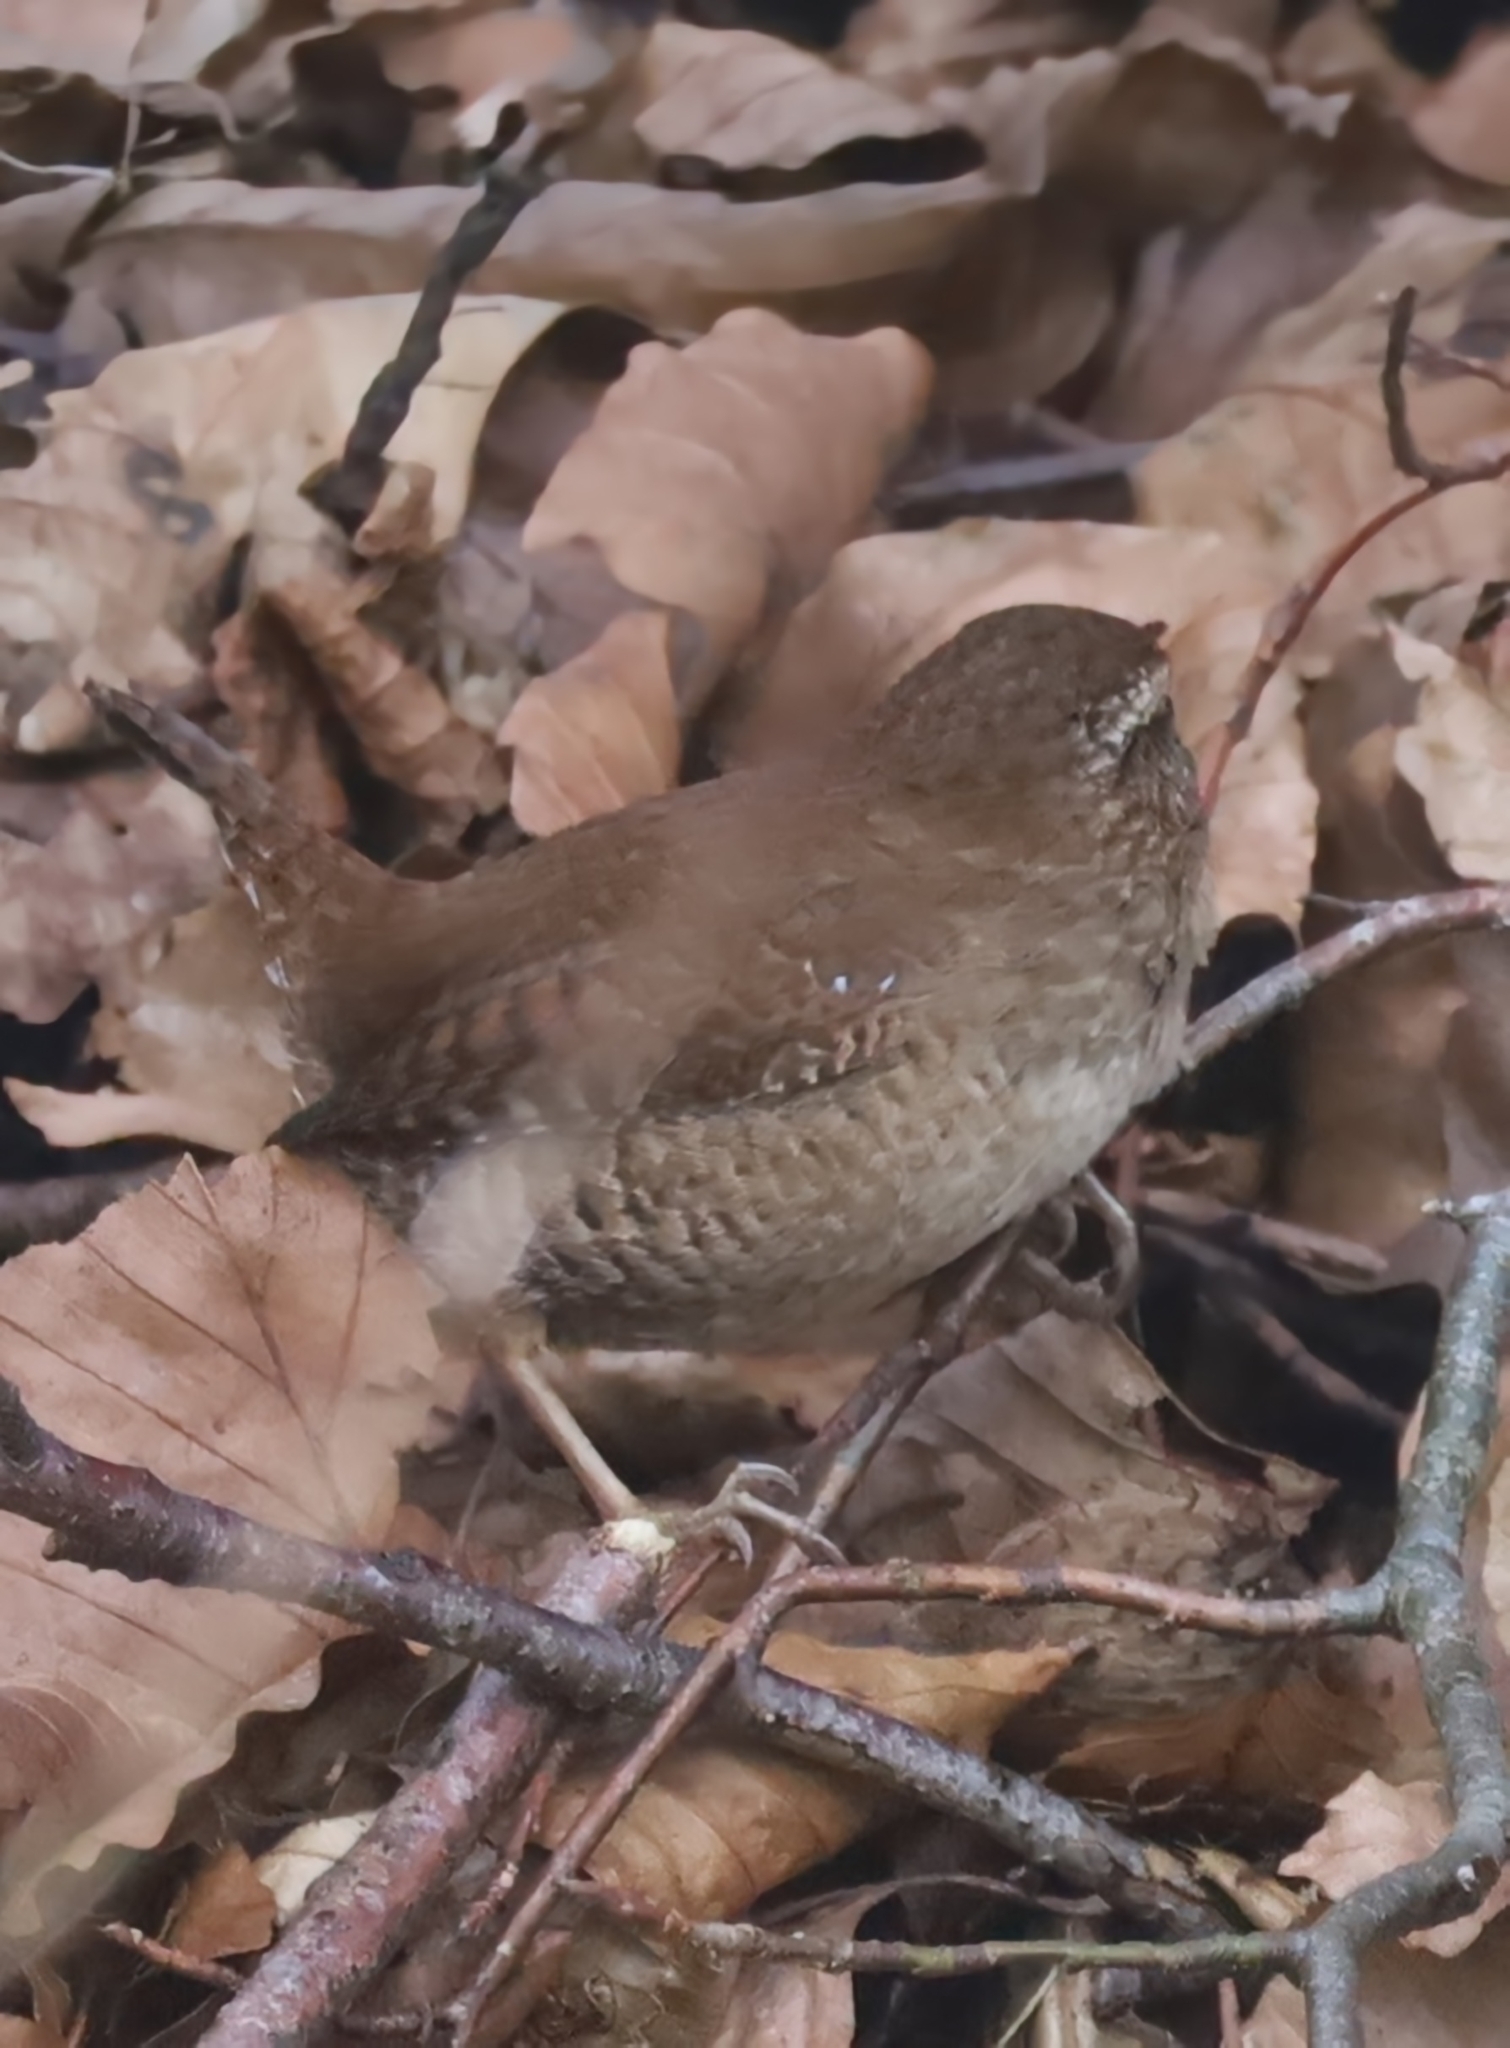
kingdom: Animalia
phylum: Chordata
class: Aves
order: Passeriformes
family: Troglodytidae
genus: Troglodytes
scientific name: Troglodytes troglodytes
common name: Eurasian wren
